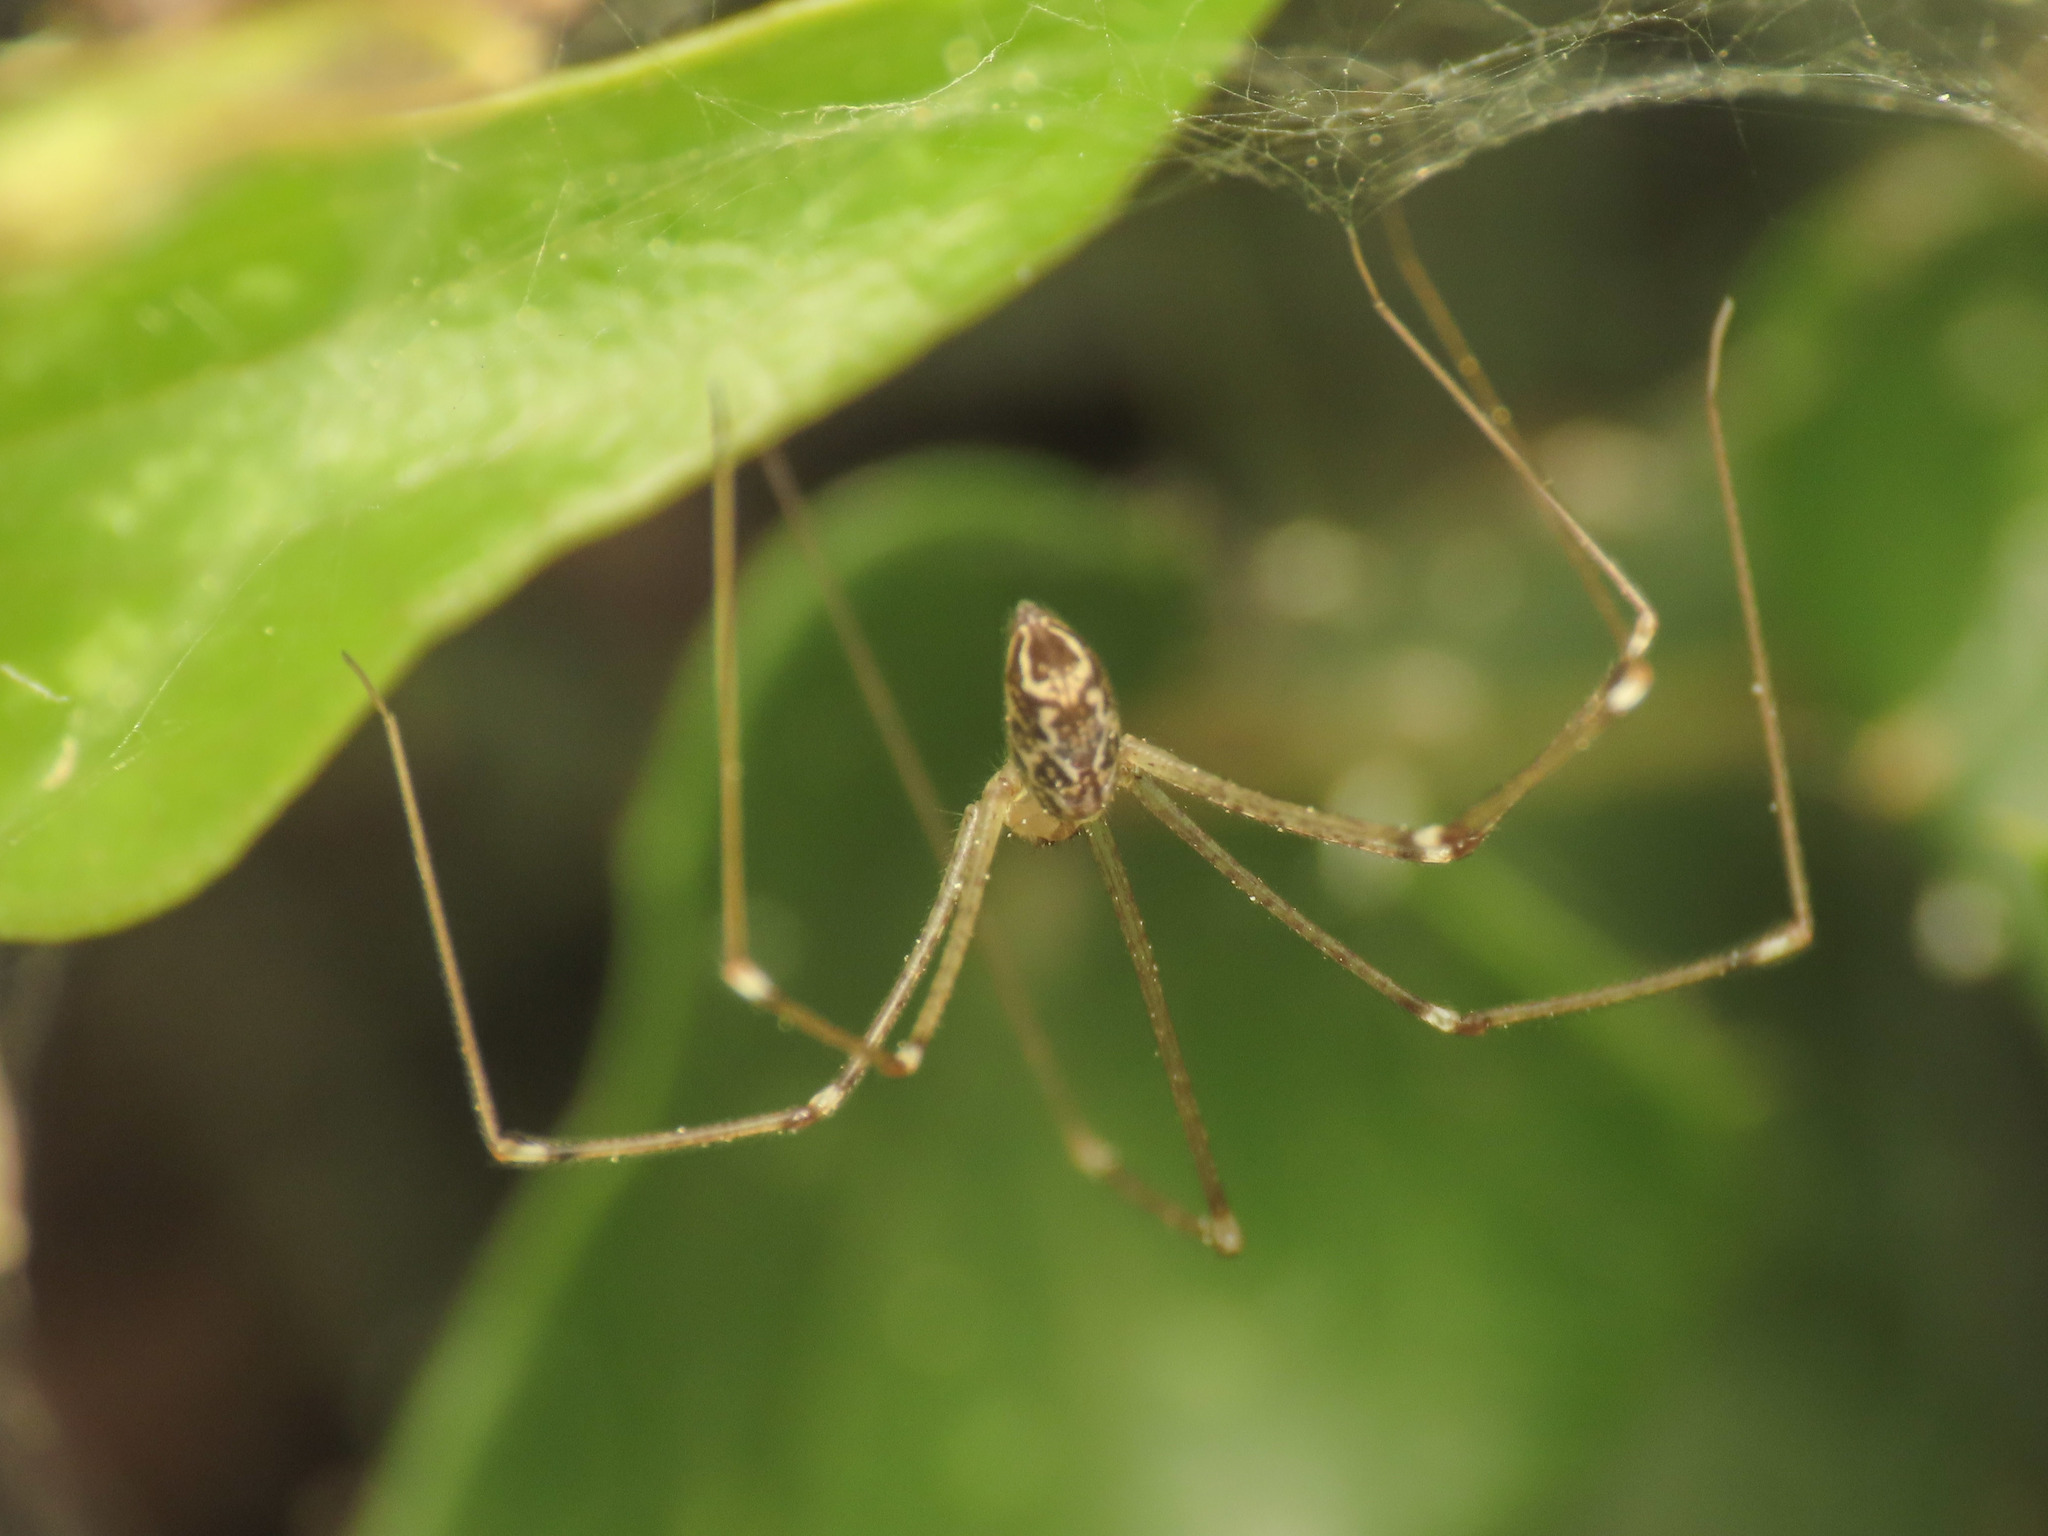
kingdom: Animalia
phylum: Arthropoda
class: Arachnida
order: Araneae
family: Pholcidae
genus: Holocnemus
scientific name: Holocnemus pluchei
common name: Marbled cellar spider
